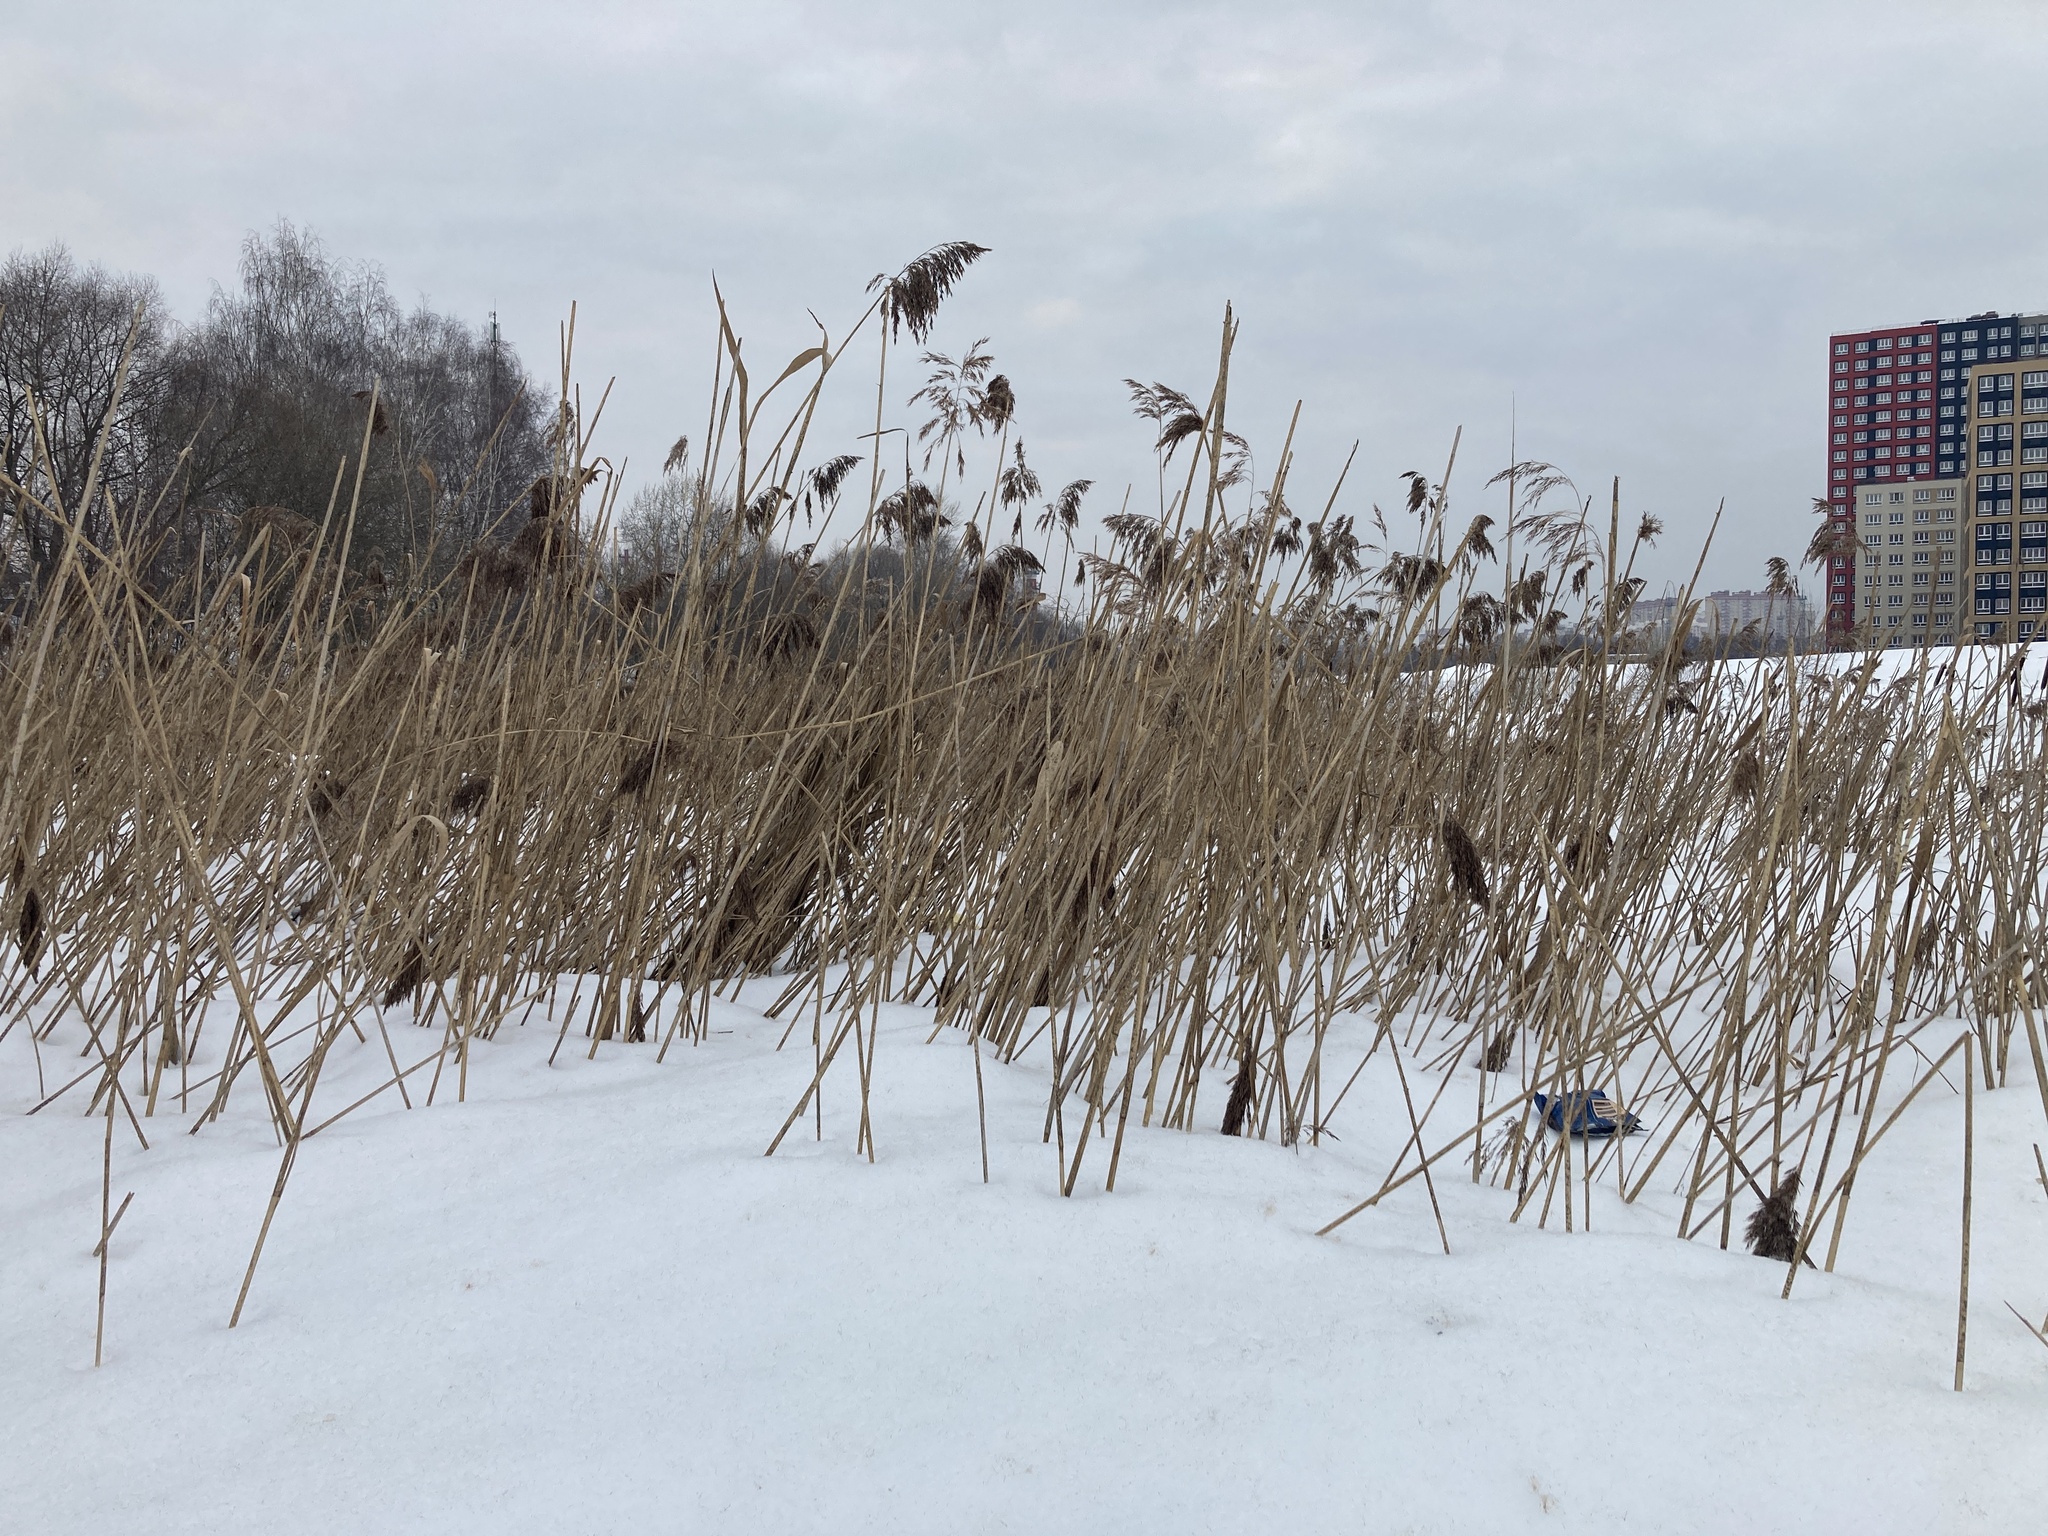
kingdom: Plantae
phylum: Tracheophyta
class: Liliopsida
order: Poales
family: Poaceae
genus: Phragmites
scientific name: Phragmites australis
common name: Common reed
